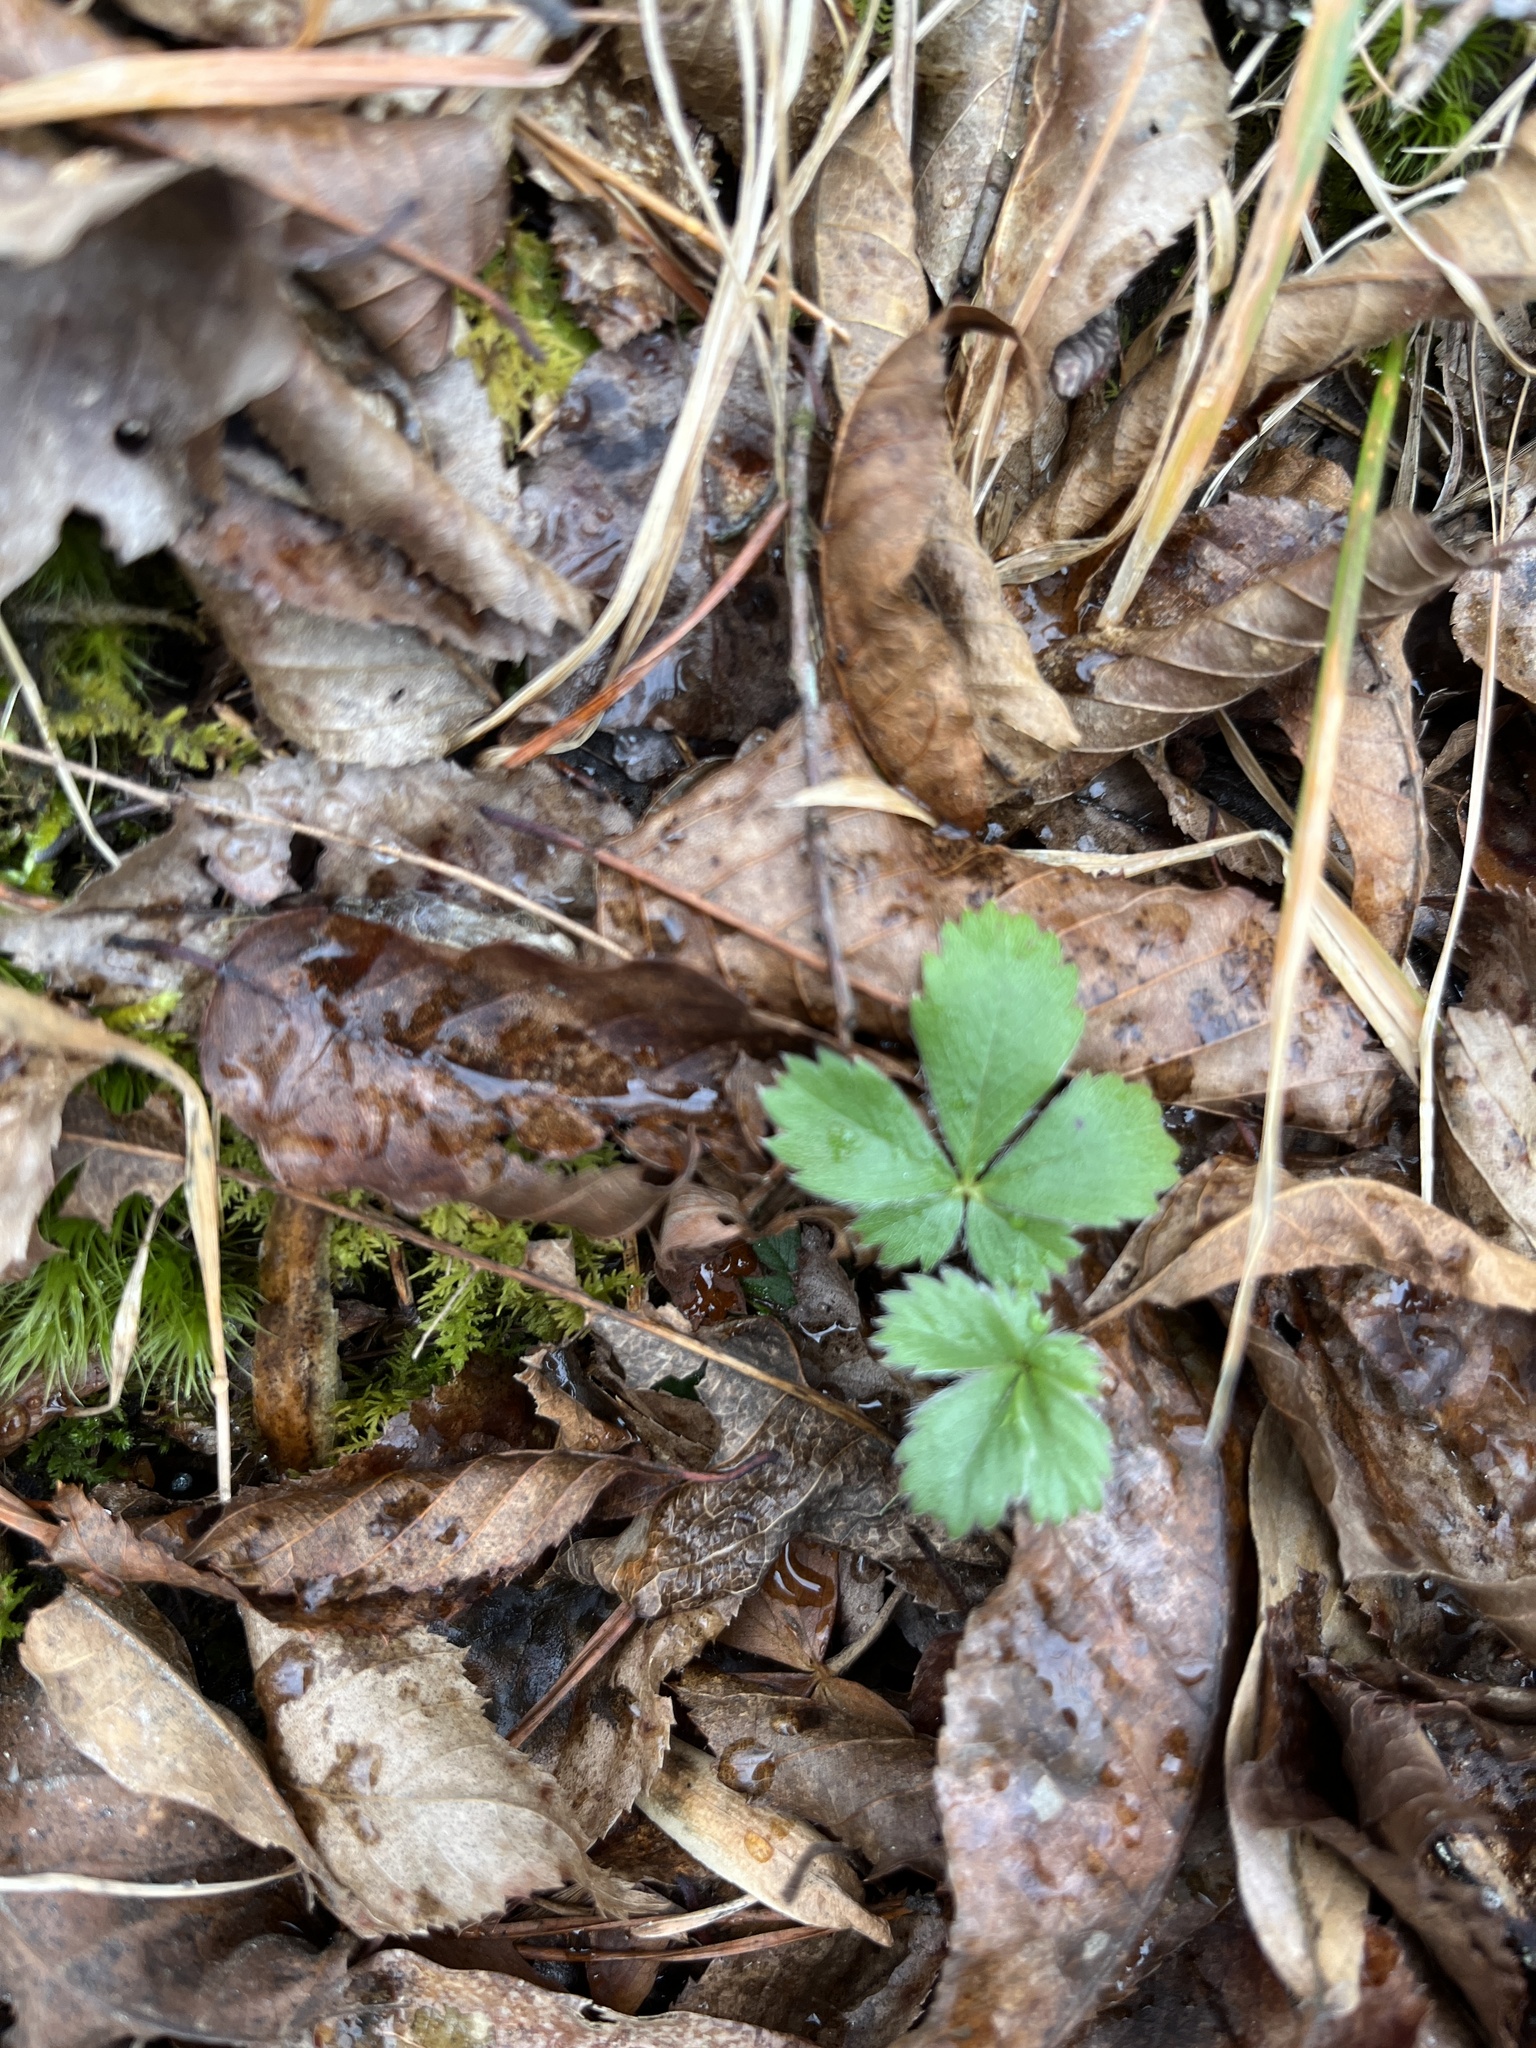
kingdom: Plantae
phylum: Tracheophyta
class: Magnoliopsida
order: Rosales
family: Rosaceae
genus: Potentilla
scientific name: Potentilla canadensis
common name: Canada cinquefoil
